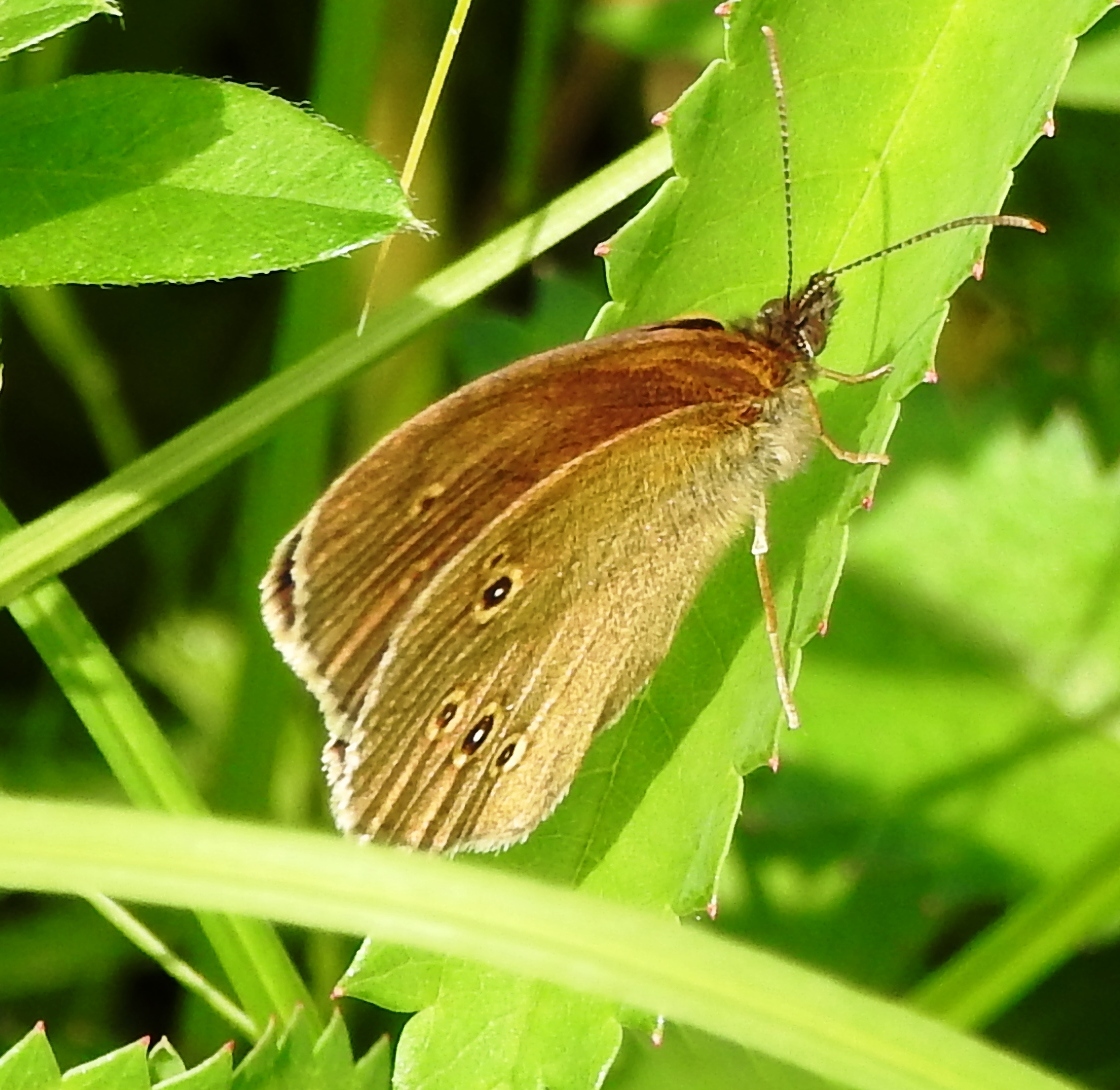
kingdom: Animalia
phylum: Arthropoda
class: Insecta
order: Lepidoptera
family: Nymphalidae
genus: Aphantopus
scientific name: Aphantopus hyperantus
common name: Ringlet
